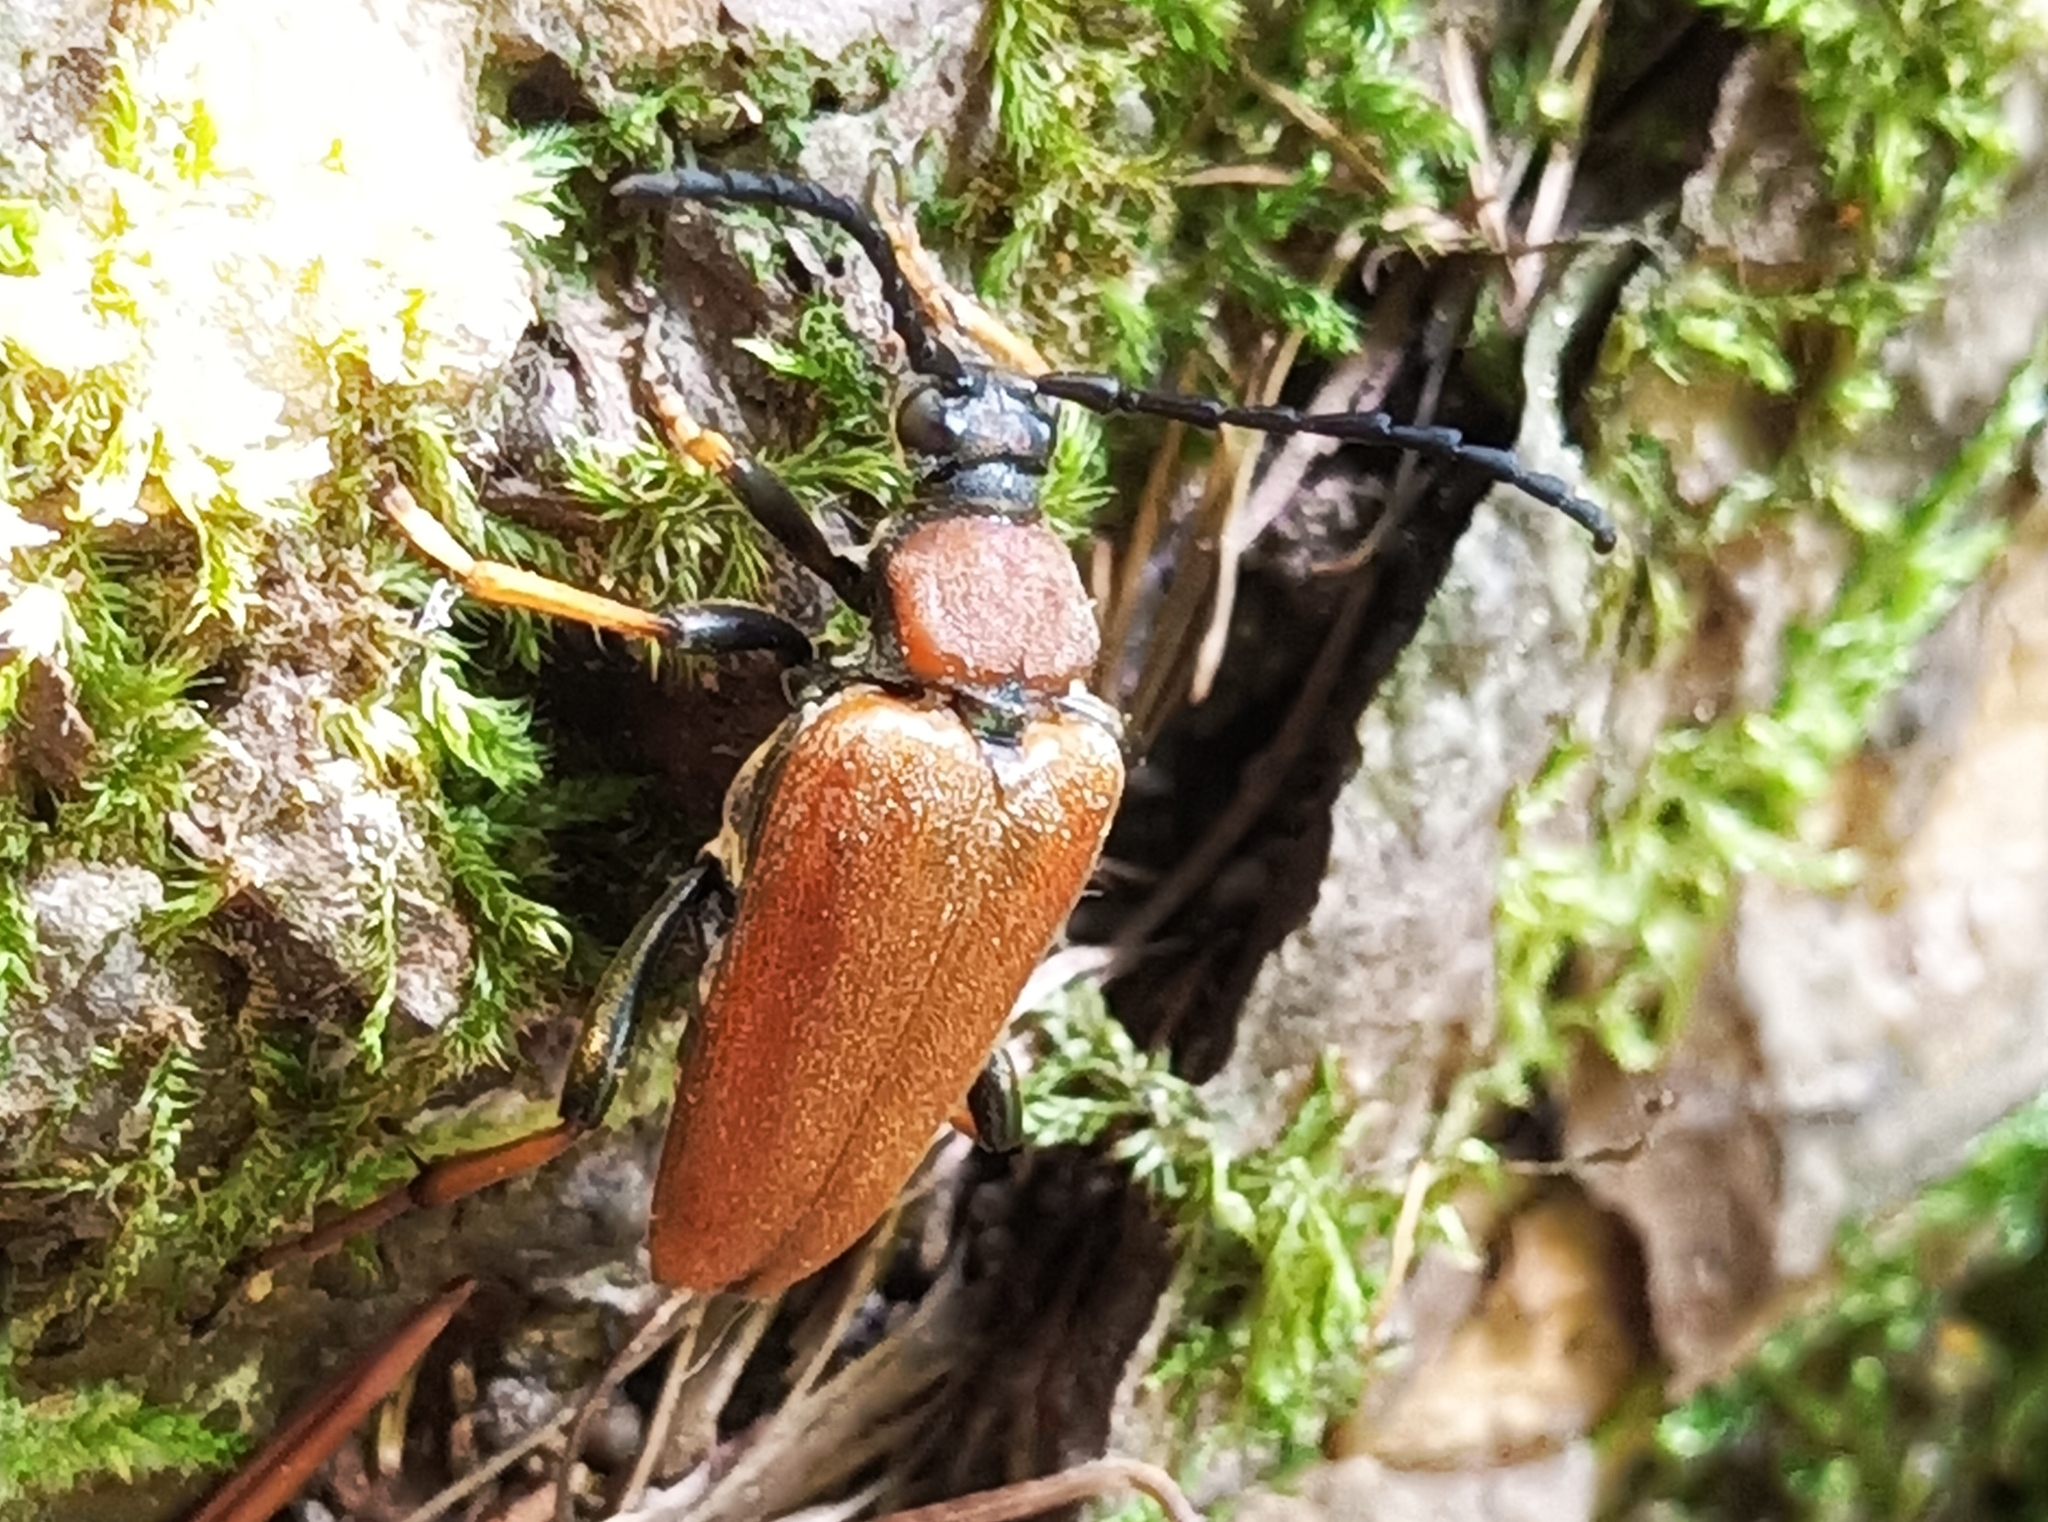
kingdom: Animalia
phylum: Arthropoda
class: Insecta
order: Coleoptera
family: Cerambycidae
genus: Stictoleptura
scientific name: Stictoleptura rubra
